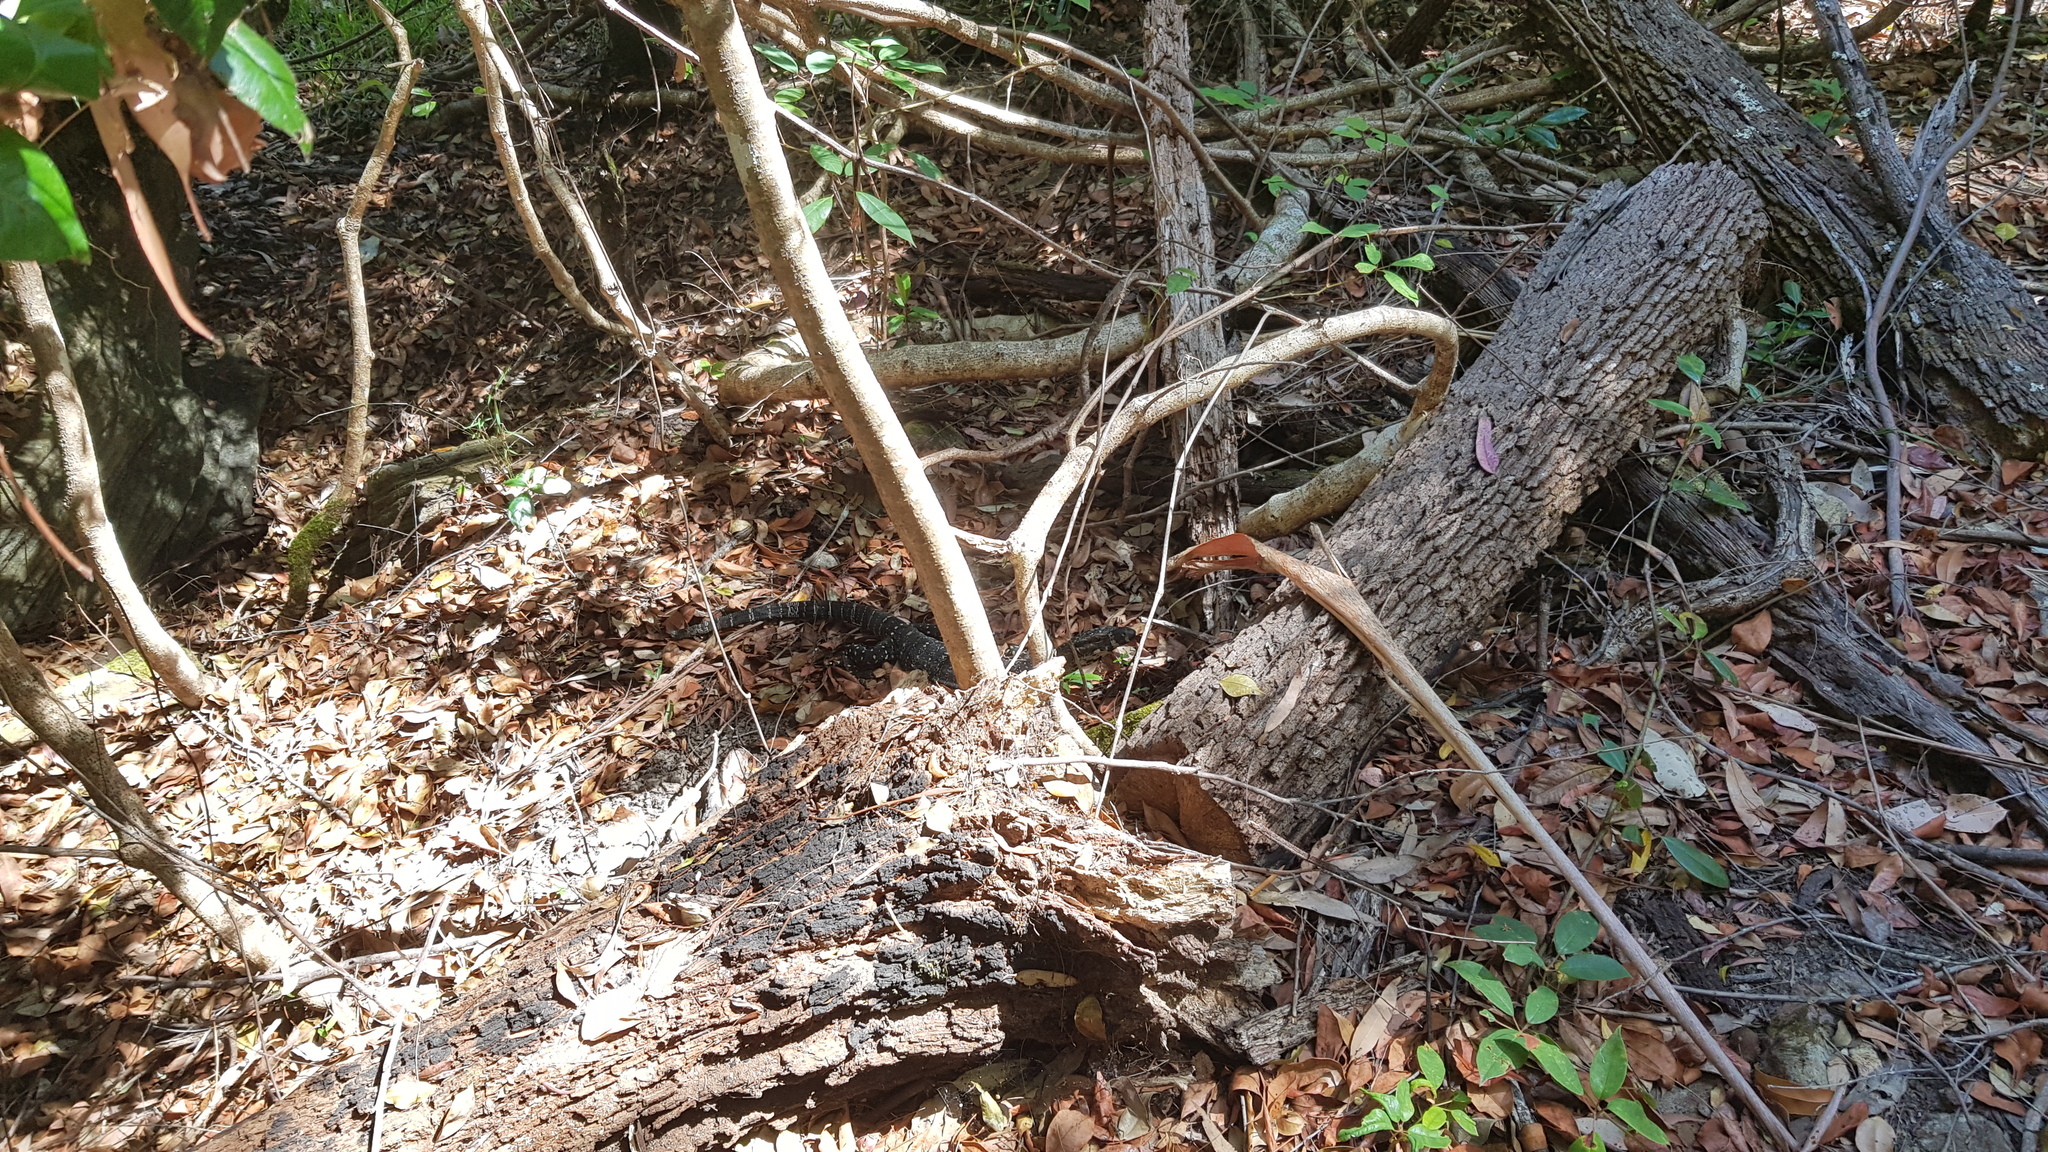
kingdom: Animalia
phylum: Chordata
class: Squamata
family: Varanidae
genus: Varanus
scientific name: Varanus varius
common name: Lace monitor
